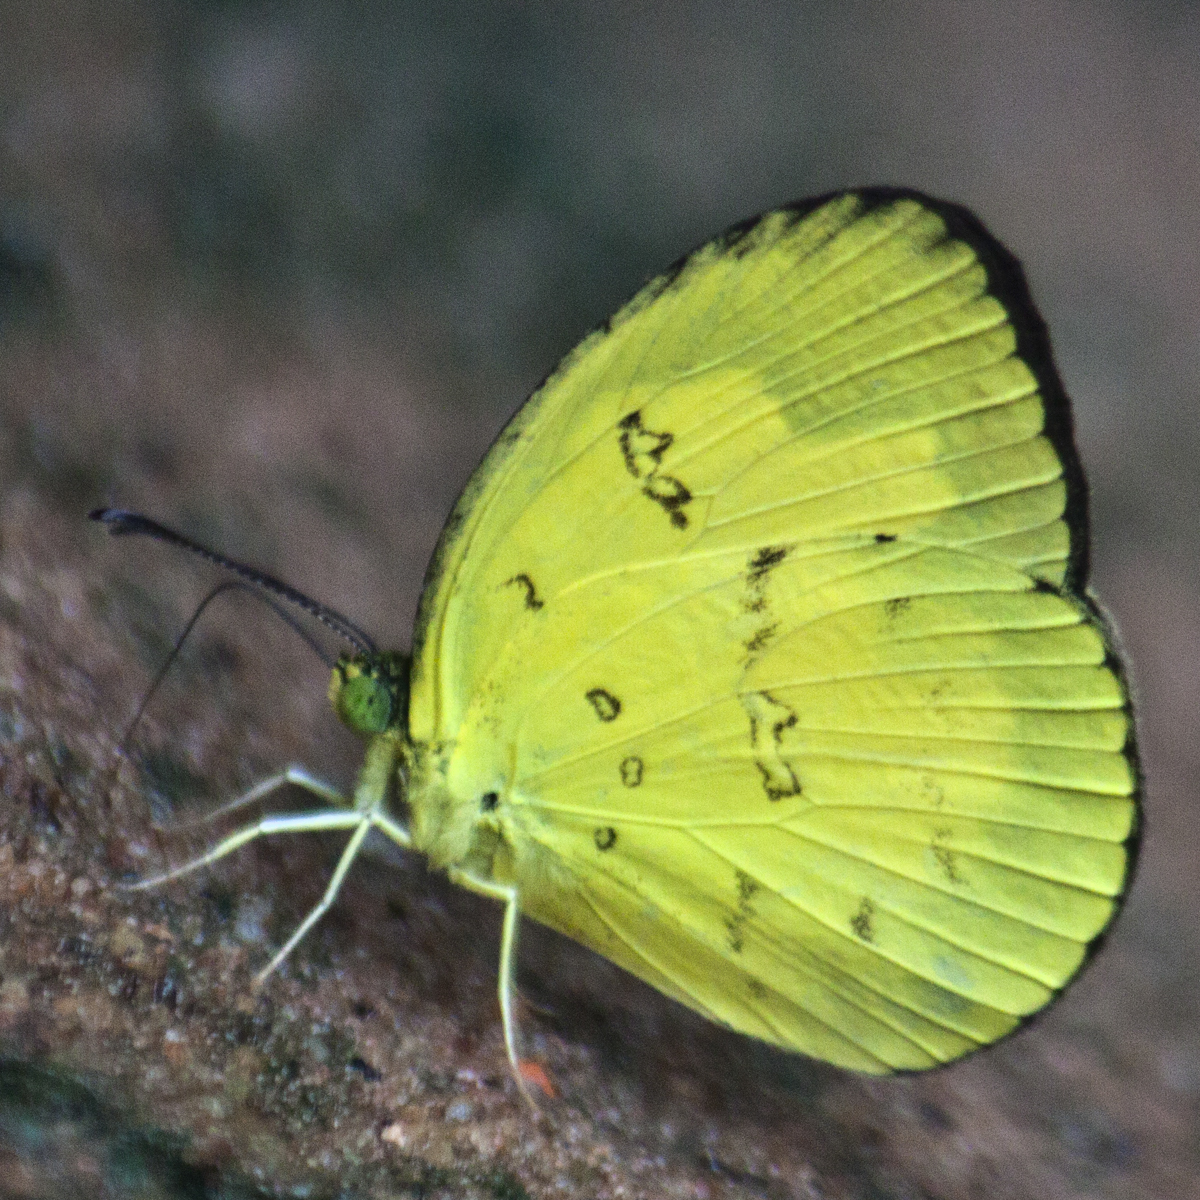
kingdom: Animalia
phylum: Arthropoda
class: Insecta
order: Lepidoptera
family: Pieridae
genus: Eurema
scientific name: Eurema andersoni
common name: One-spot yellow grass
